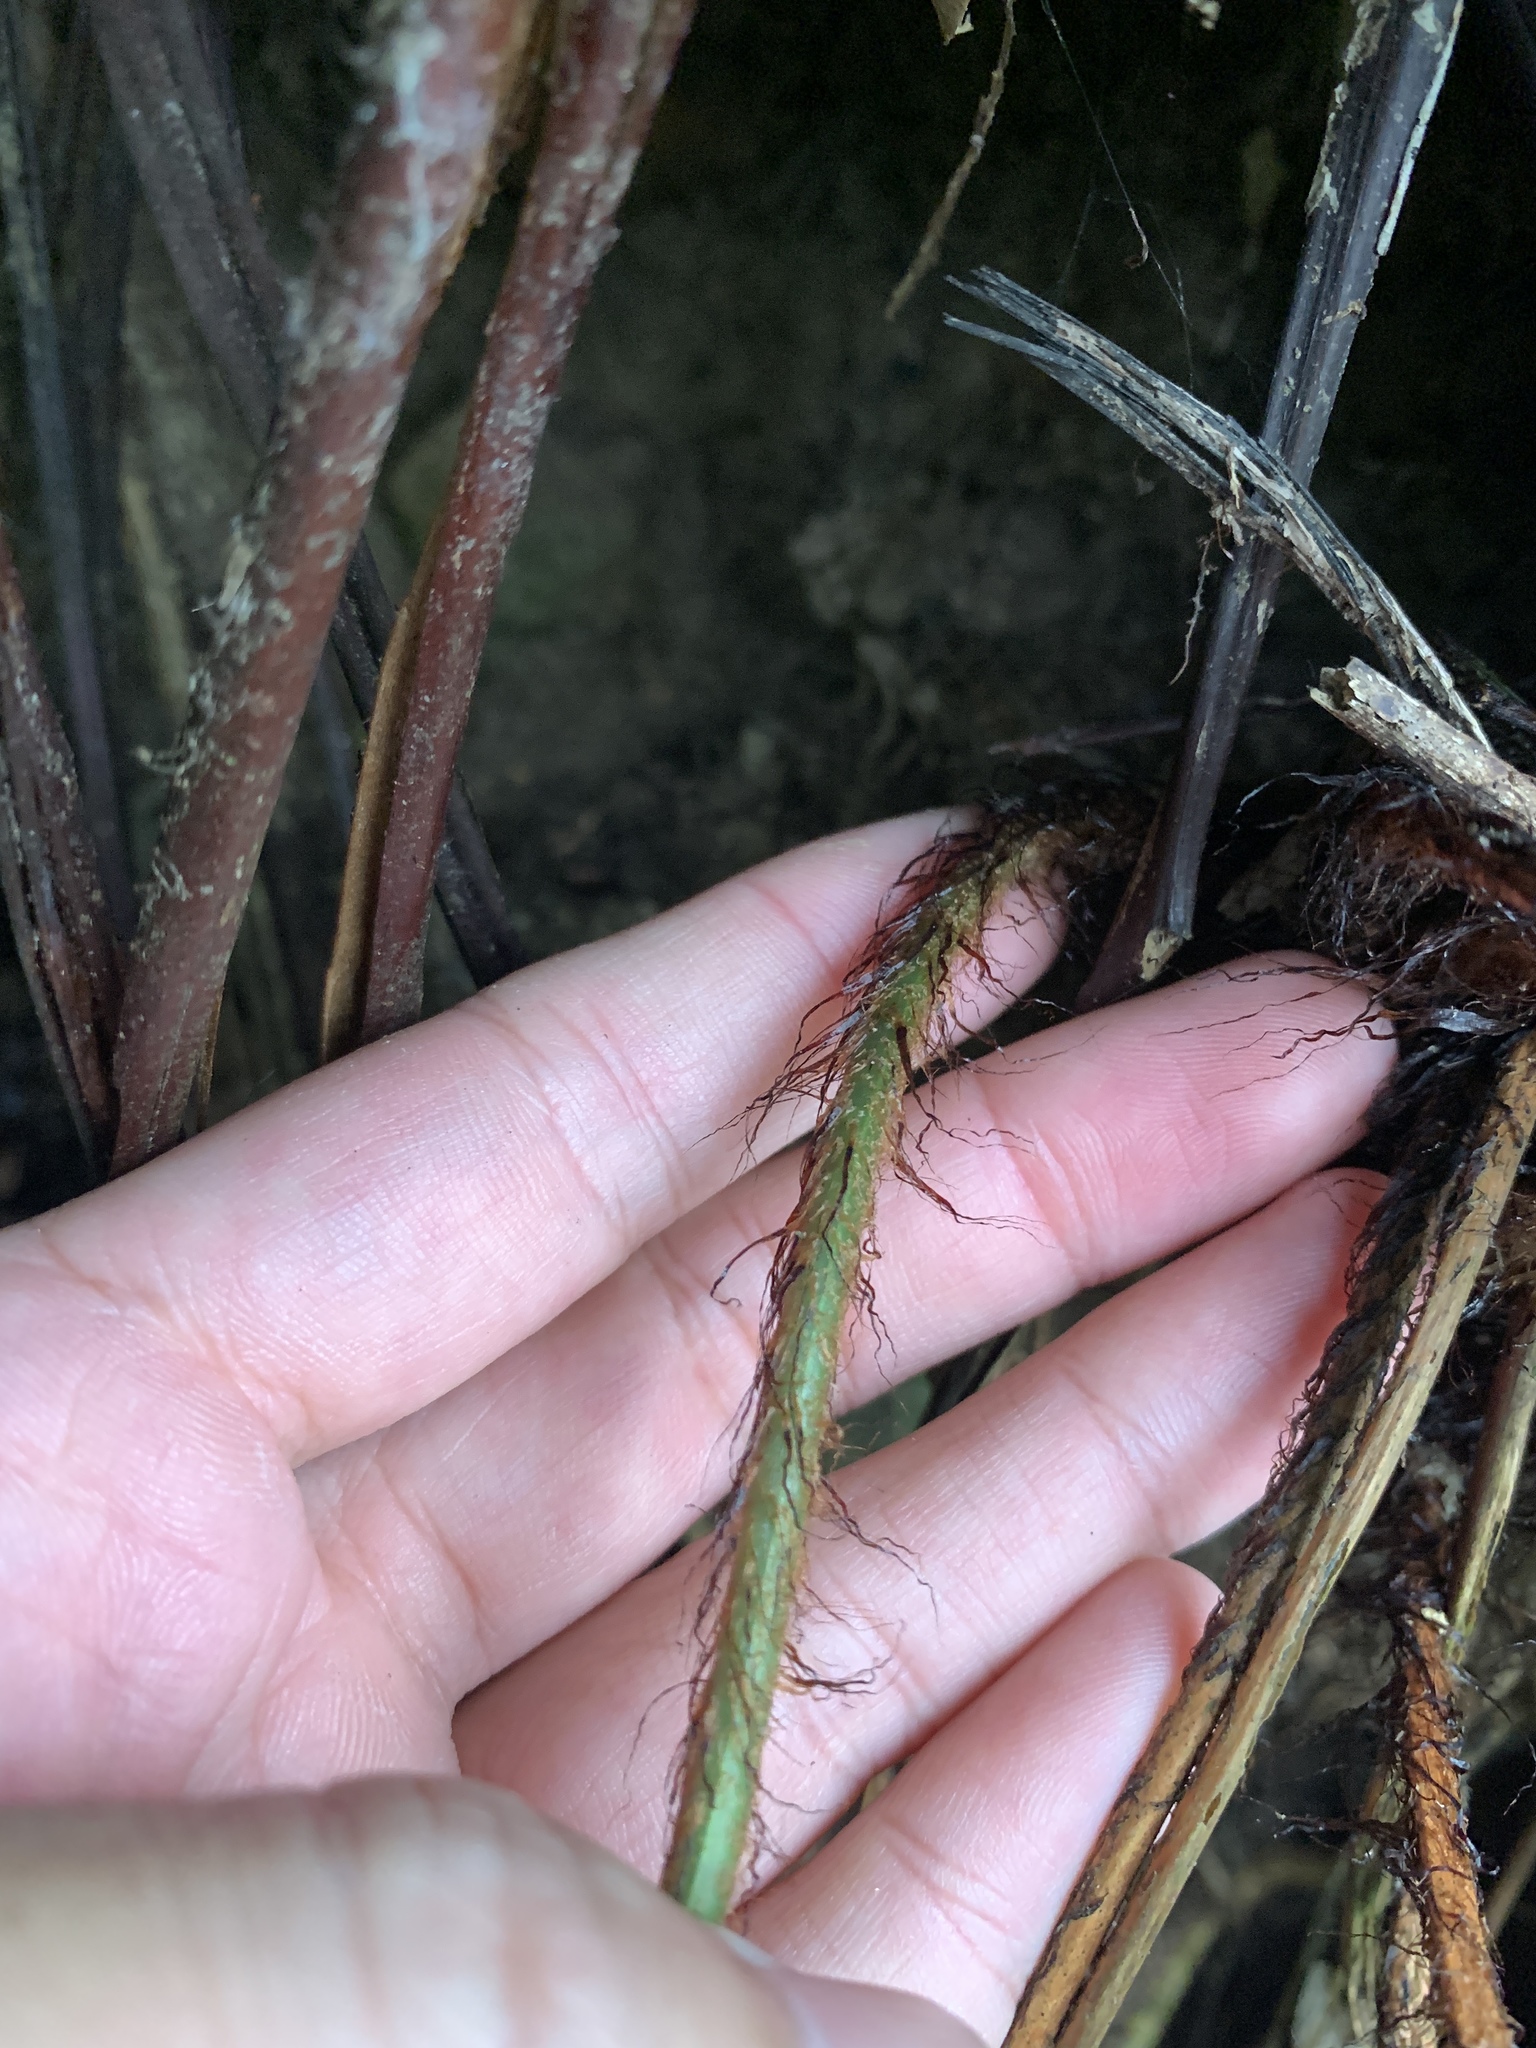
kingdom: Plantae
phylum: Tracheophyta
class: Polypodiopsida
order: Polypodiales
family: Dryopteridaceae
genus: Dryopteris
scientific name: Dryopteris varia
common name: Japanese holly fern
